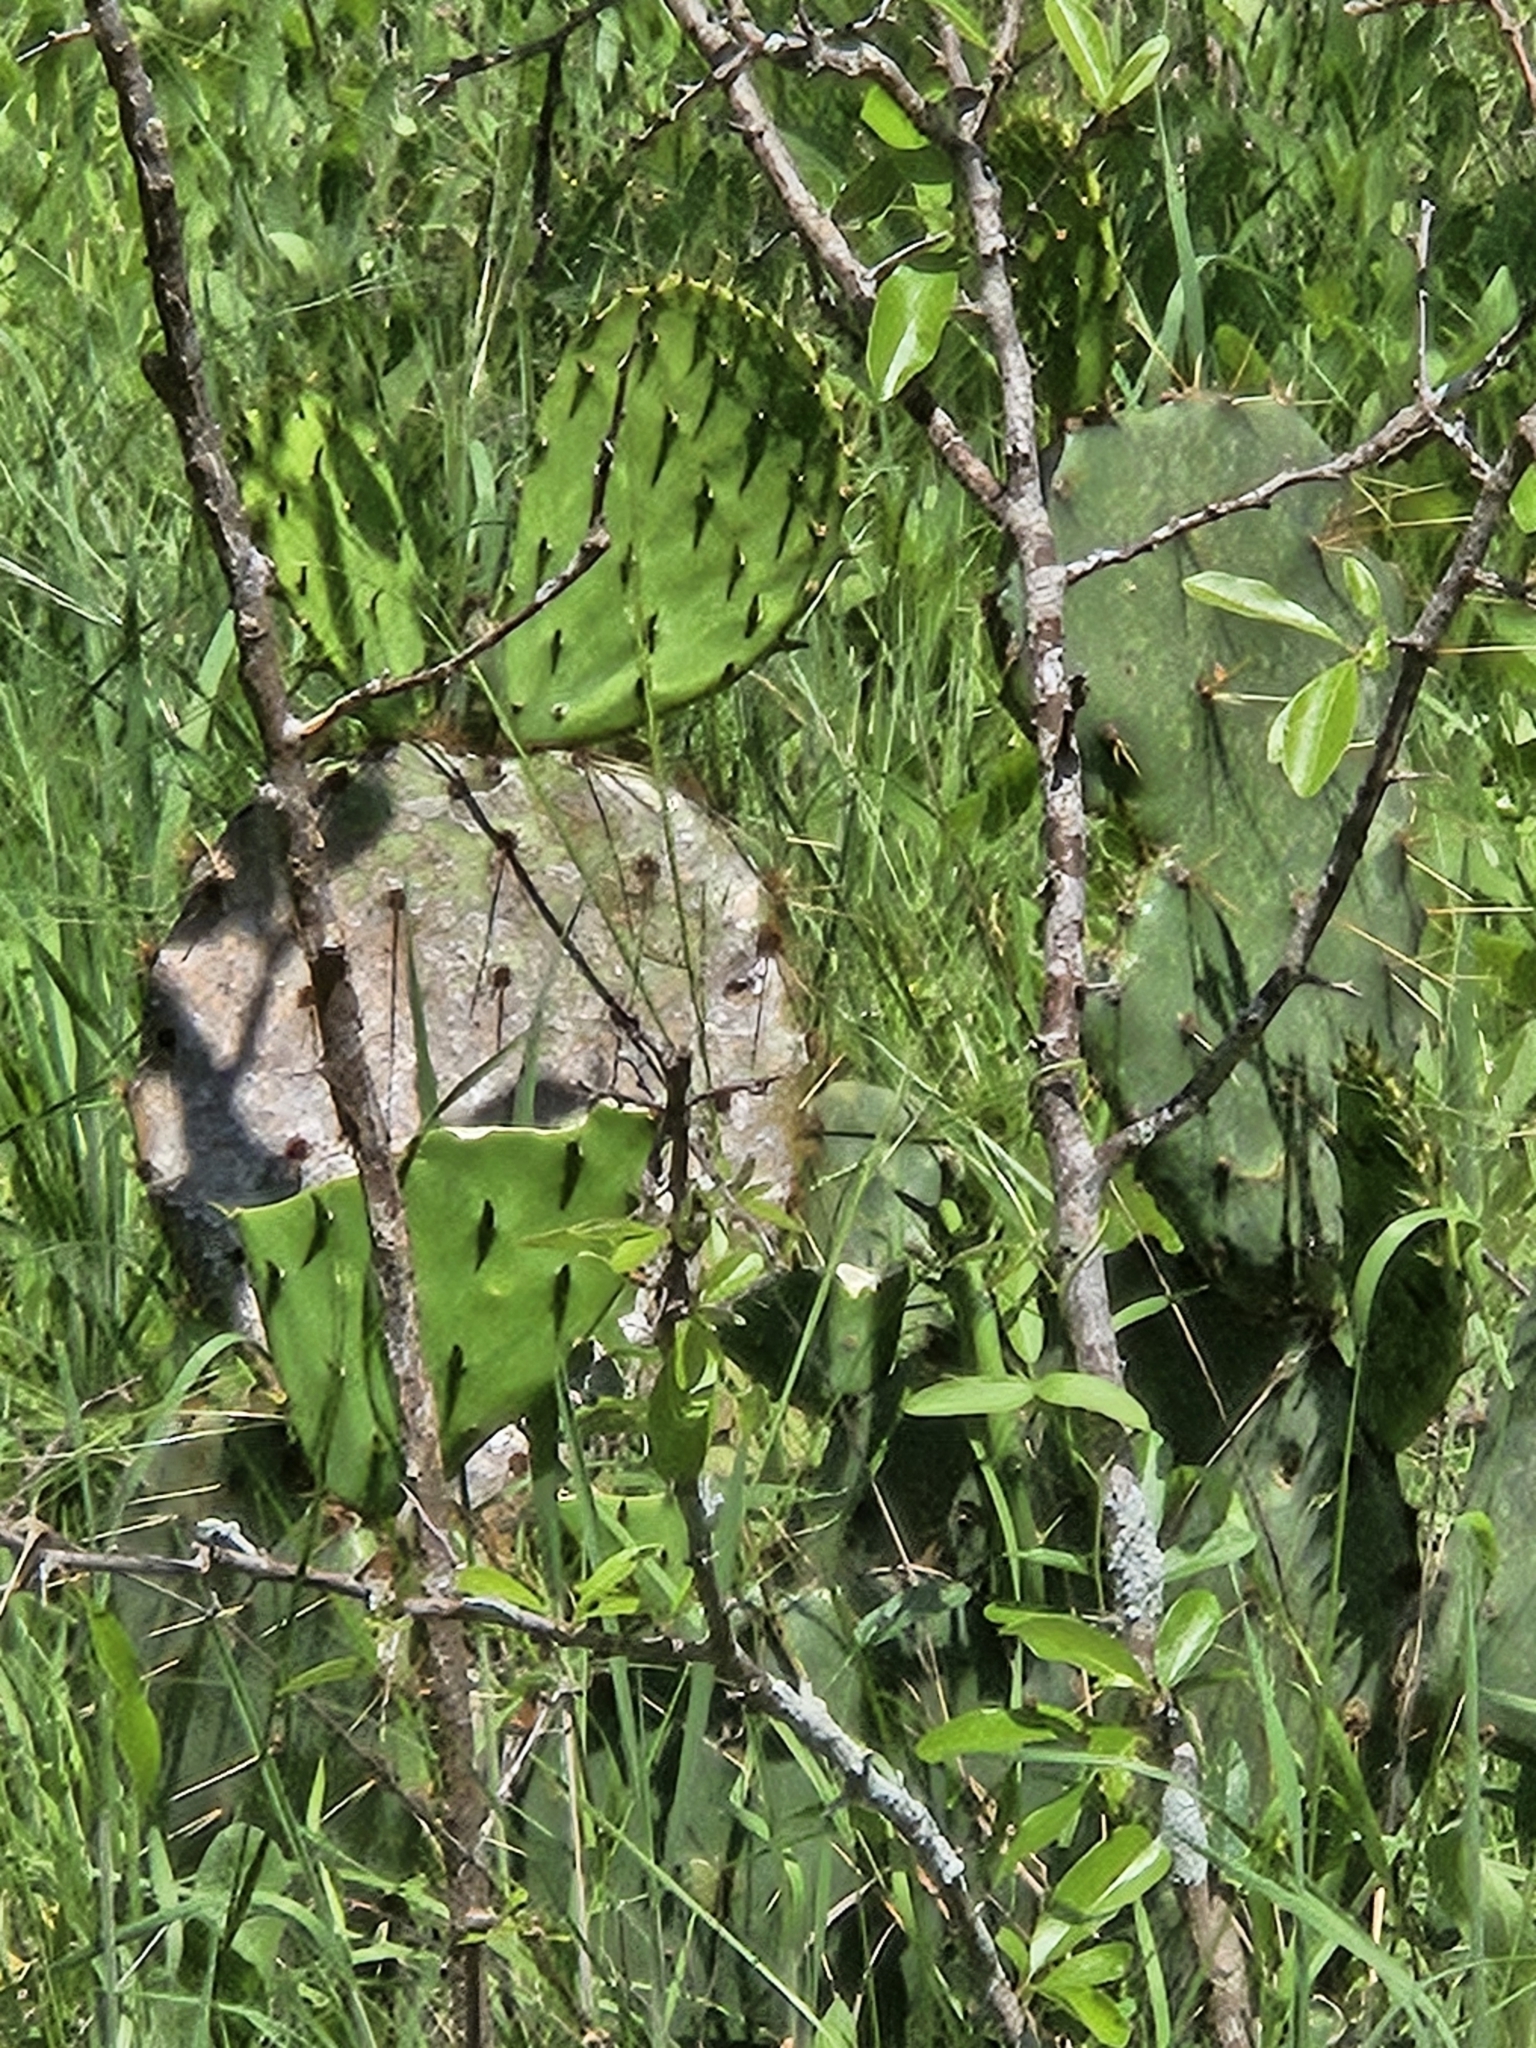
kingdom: Plantae
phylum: Tracheophyta
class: Magnoliopsida
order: Caryophyllales
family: Cactaceae
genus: Opuntia
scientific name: Opuntia engelmannii
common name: Cactus-apple
